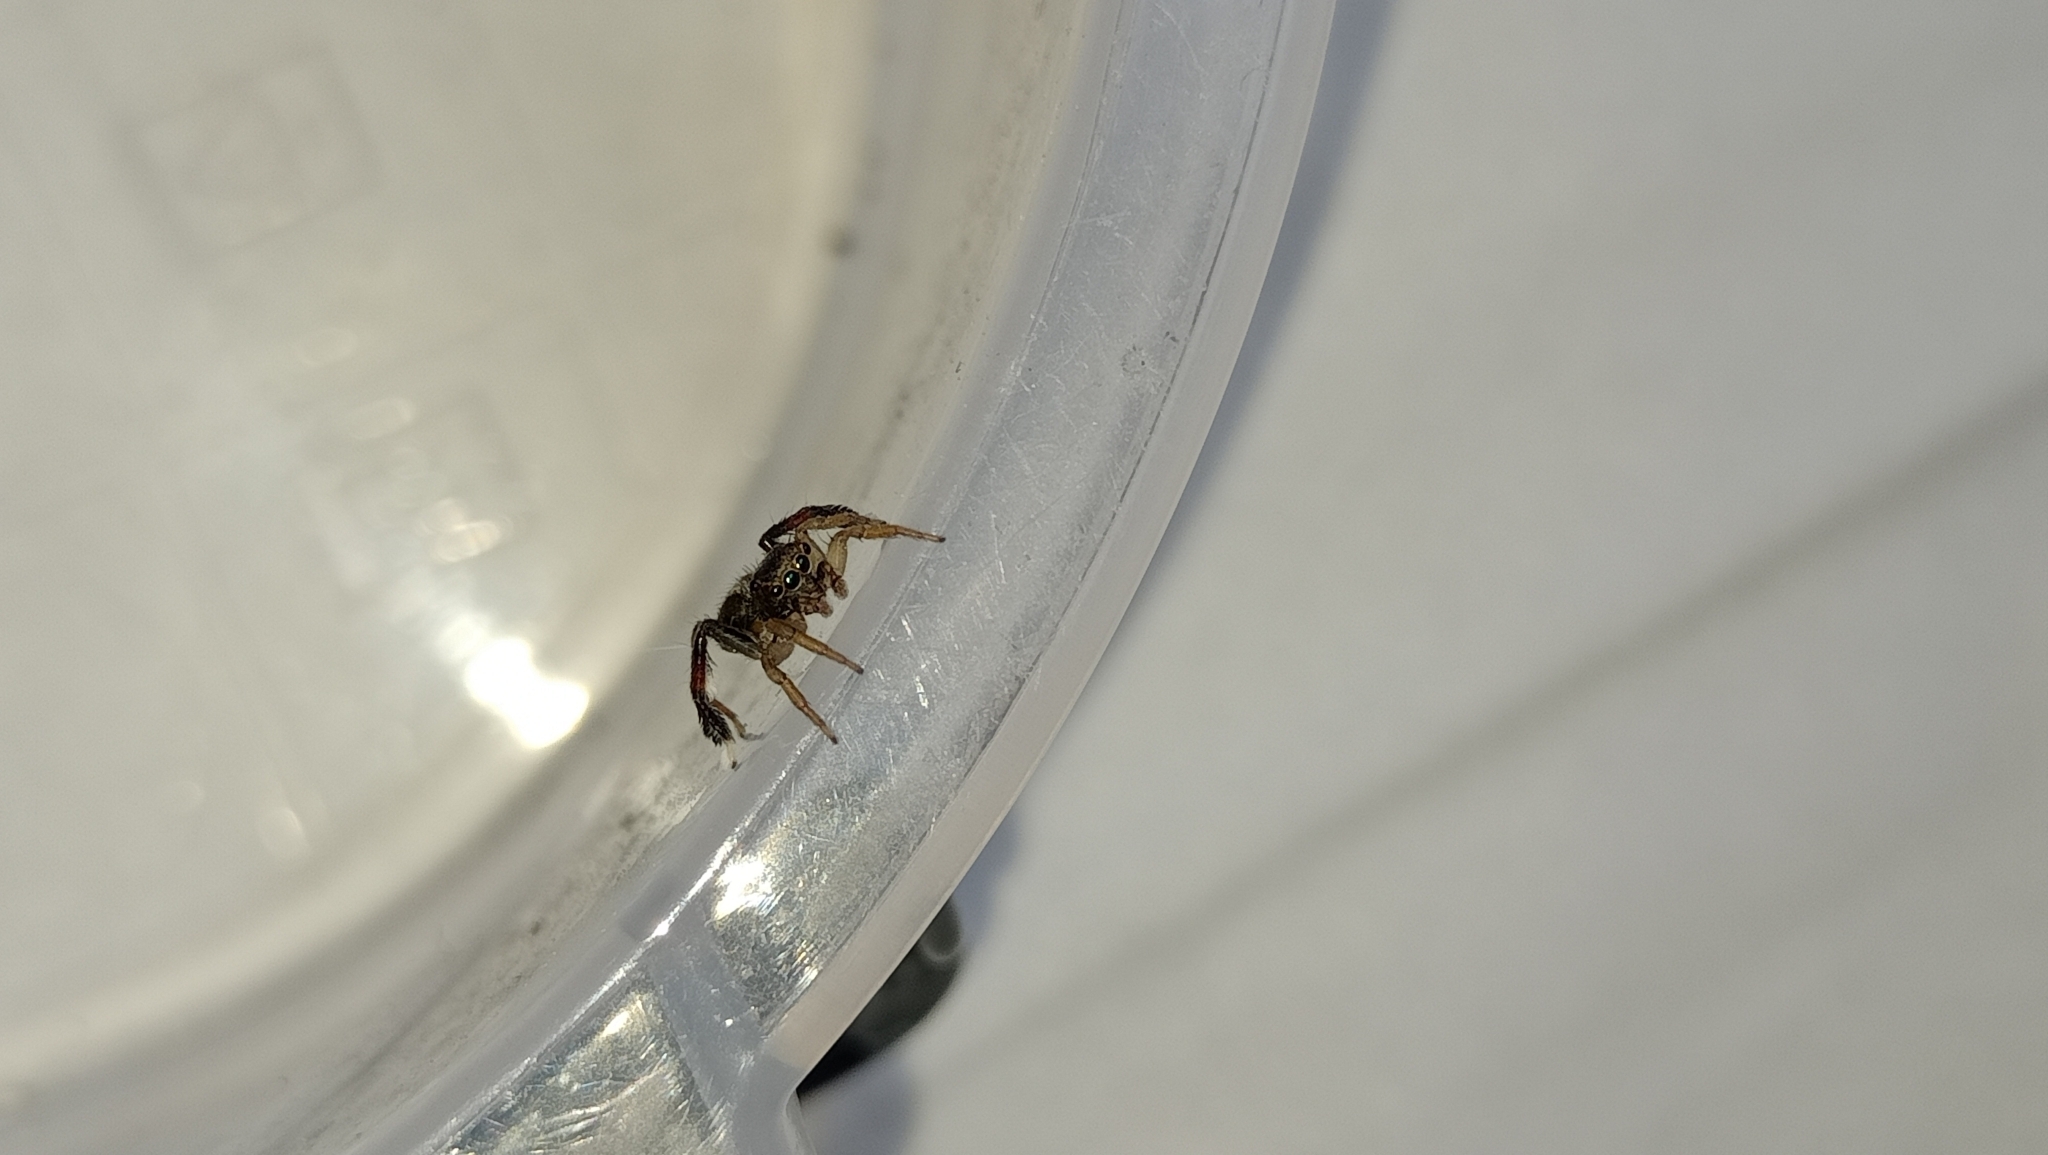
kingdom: Animalia
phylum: Arthropoda
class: Arachnida
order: Araneae
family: Salticidae
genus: Saitis
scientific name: Saitis tauricus
